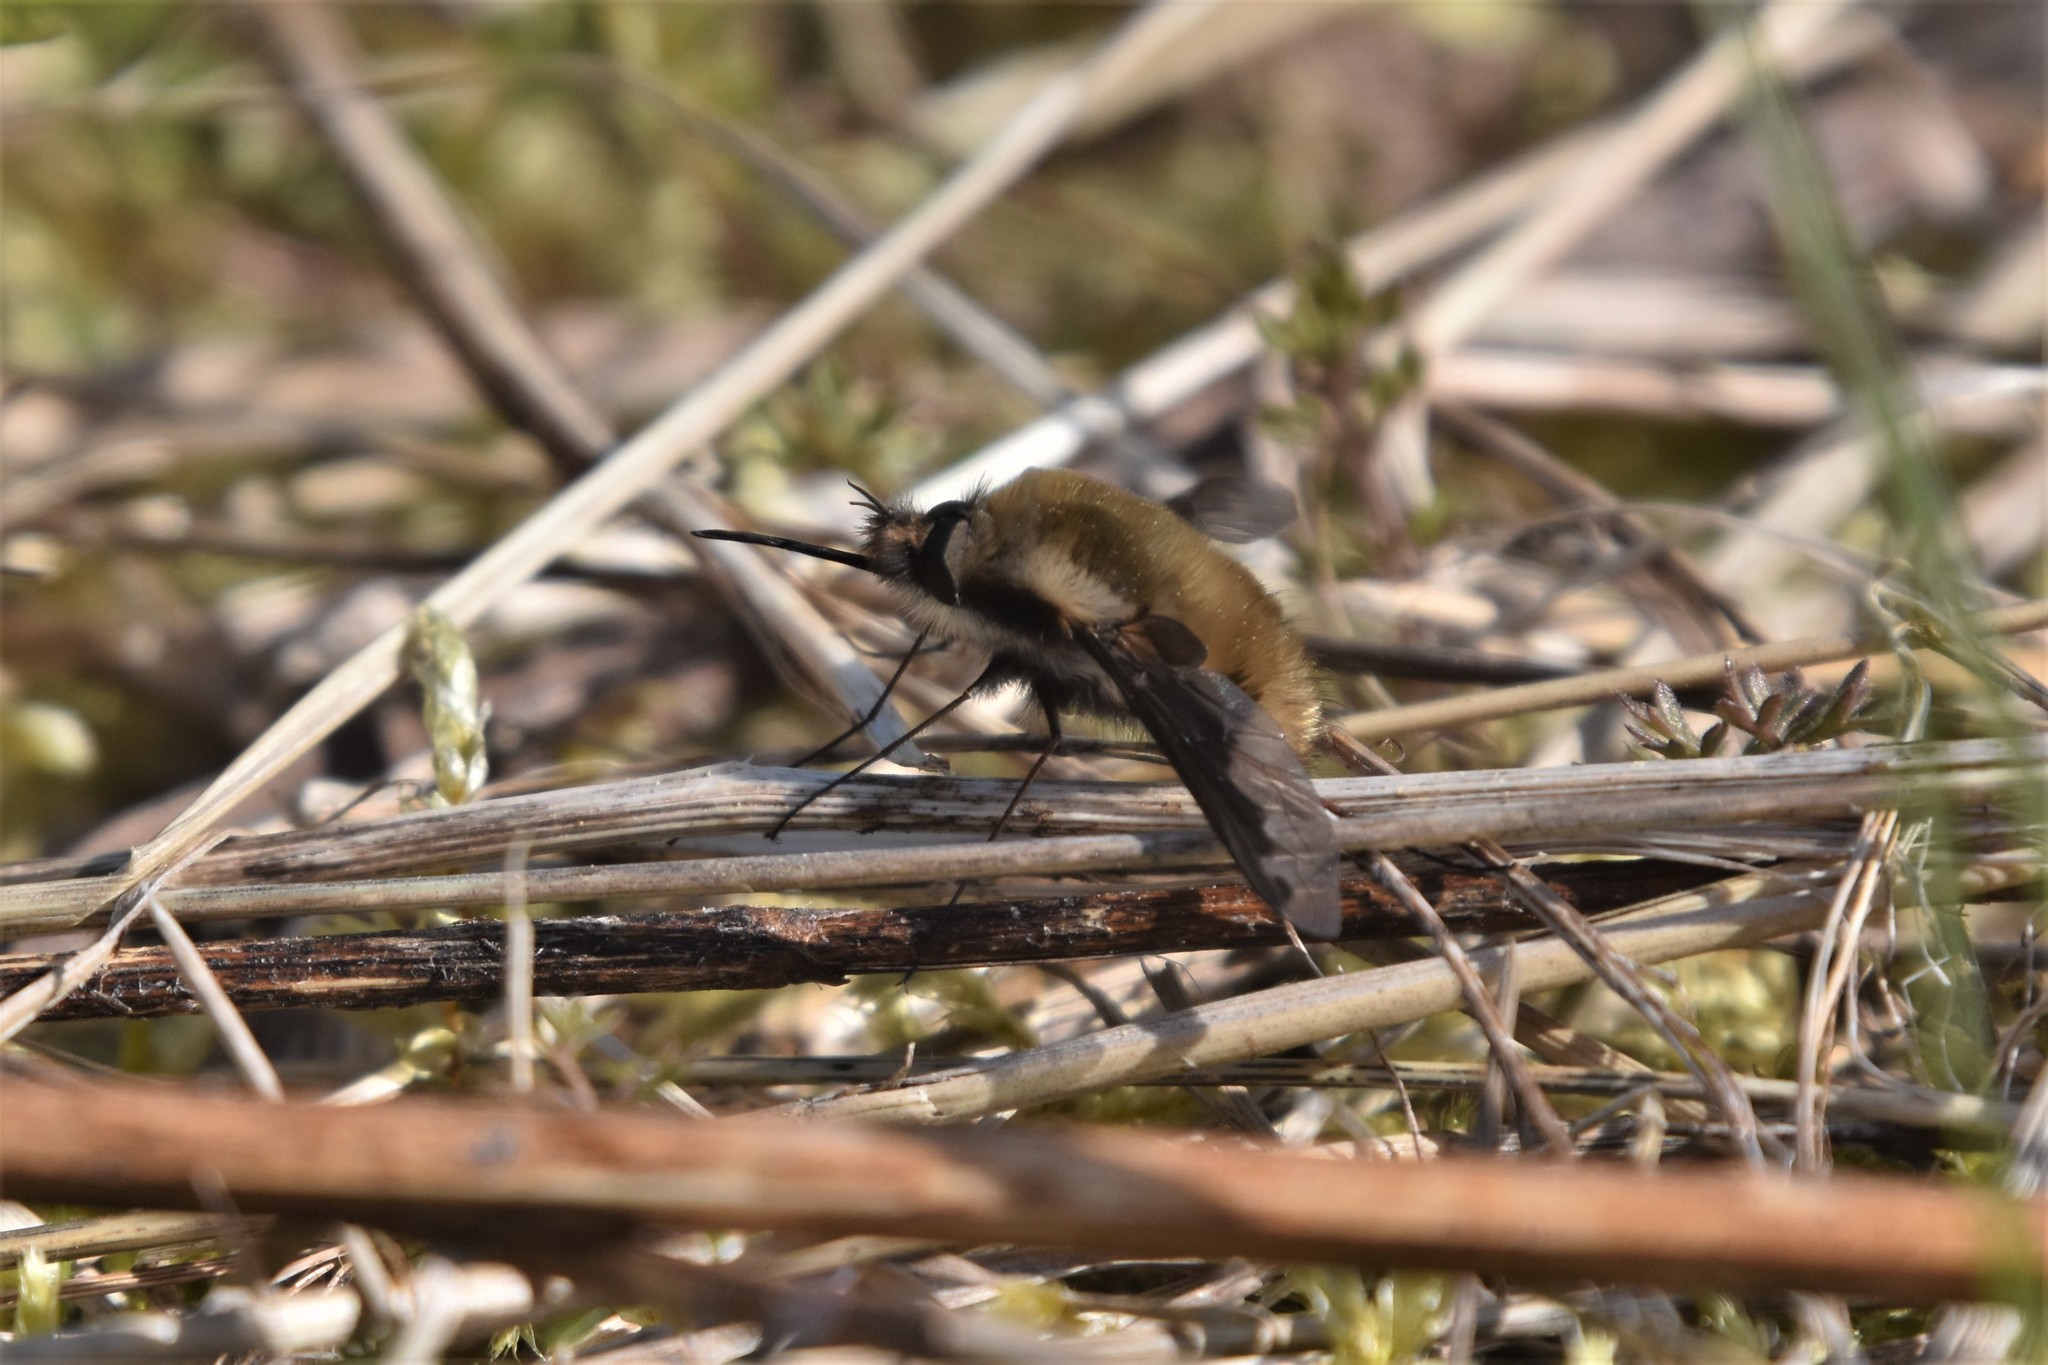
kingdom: Animalia
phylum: Arthropoda
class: Insecta
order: Diptera
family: Bombyliidae
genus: Bombylius
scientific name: Bombylius major
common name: Bee fly
